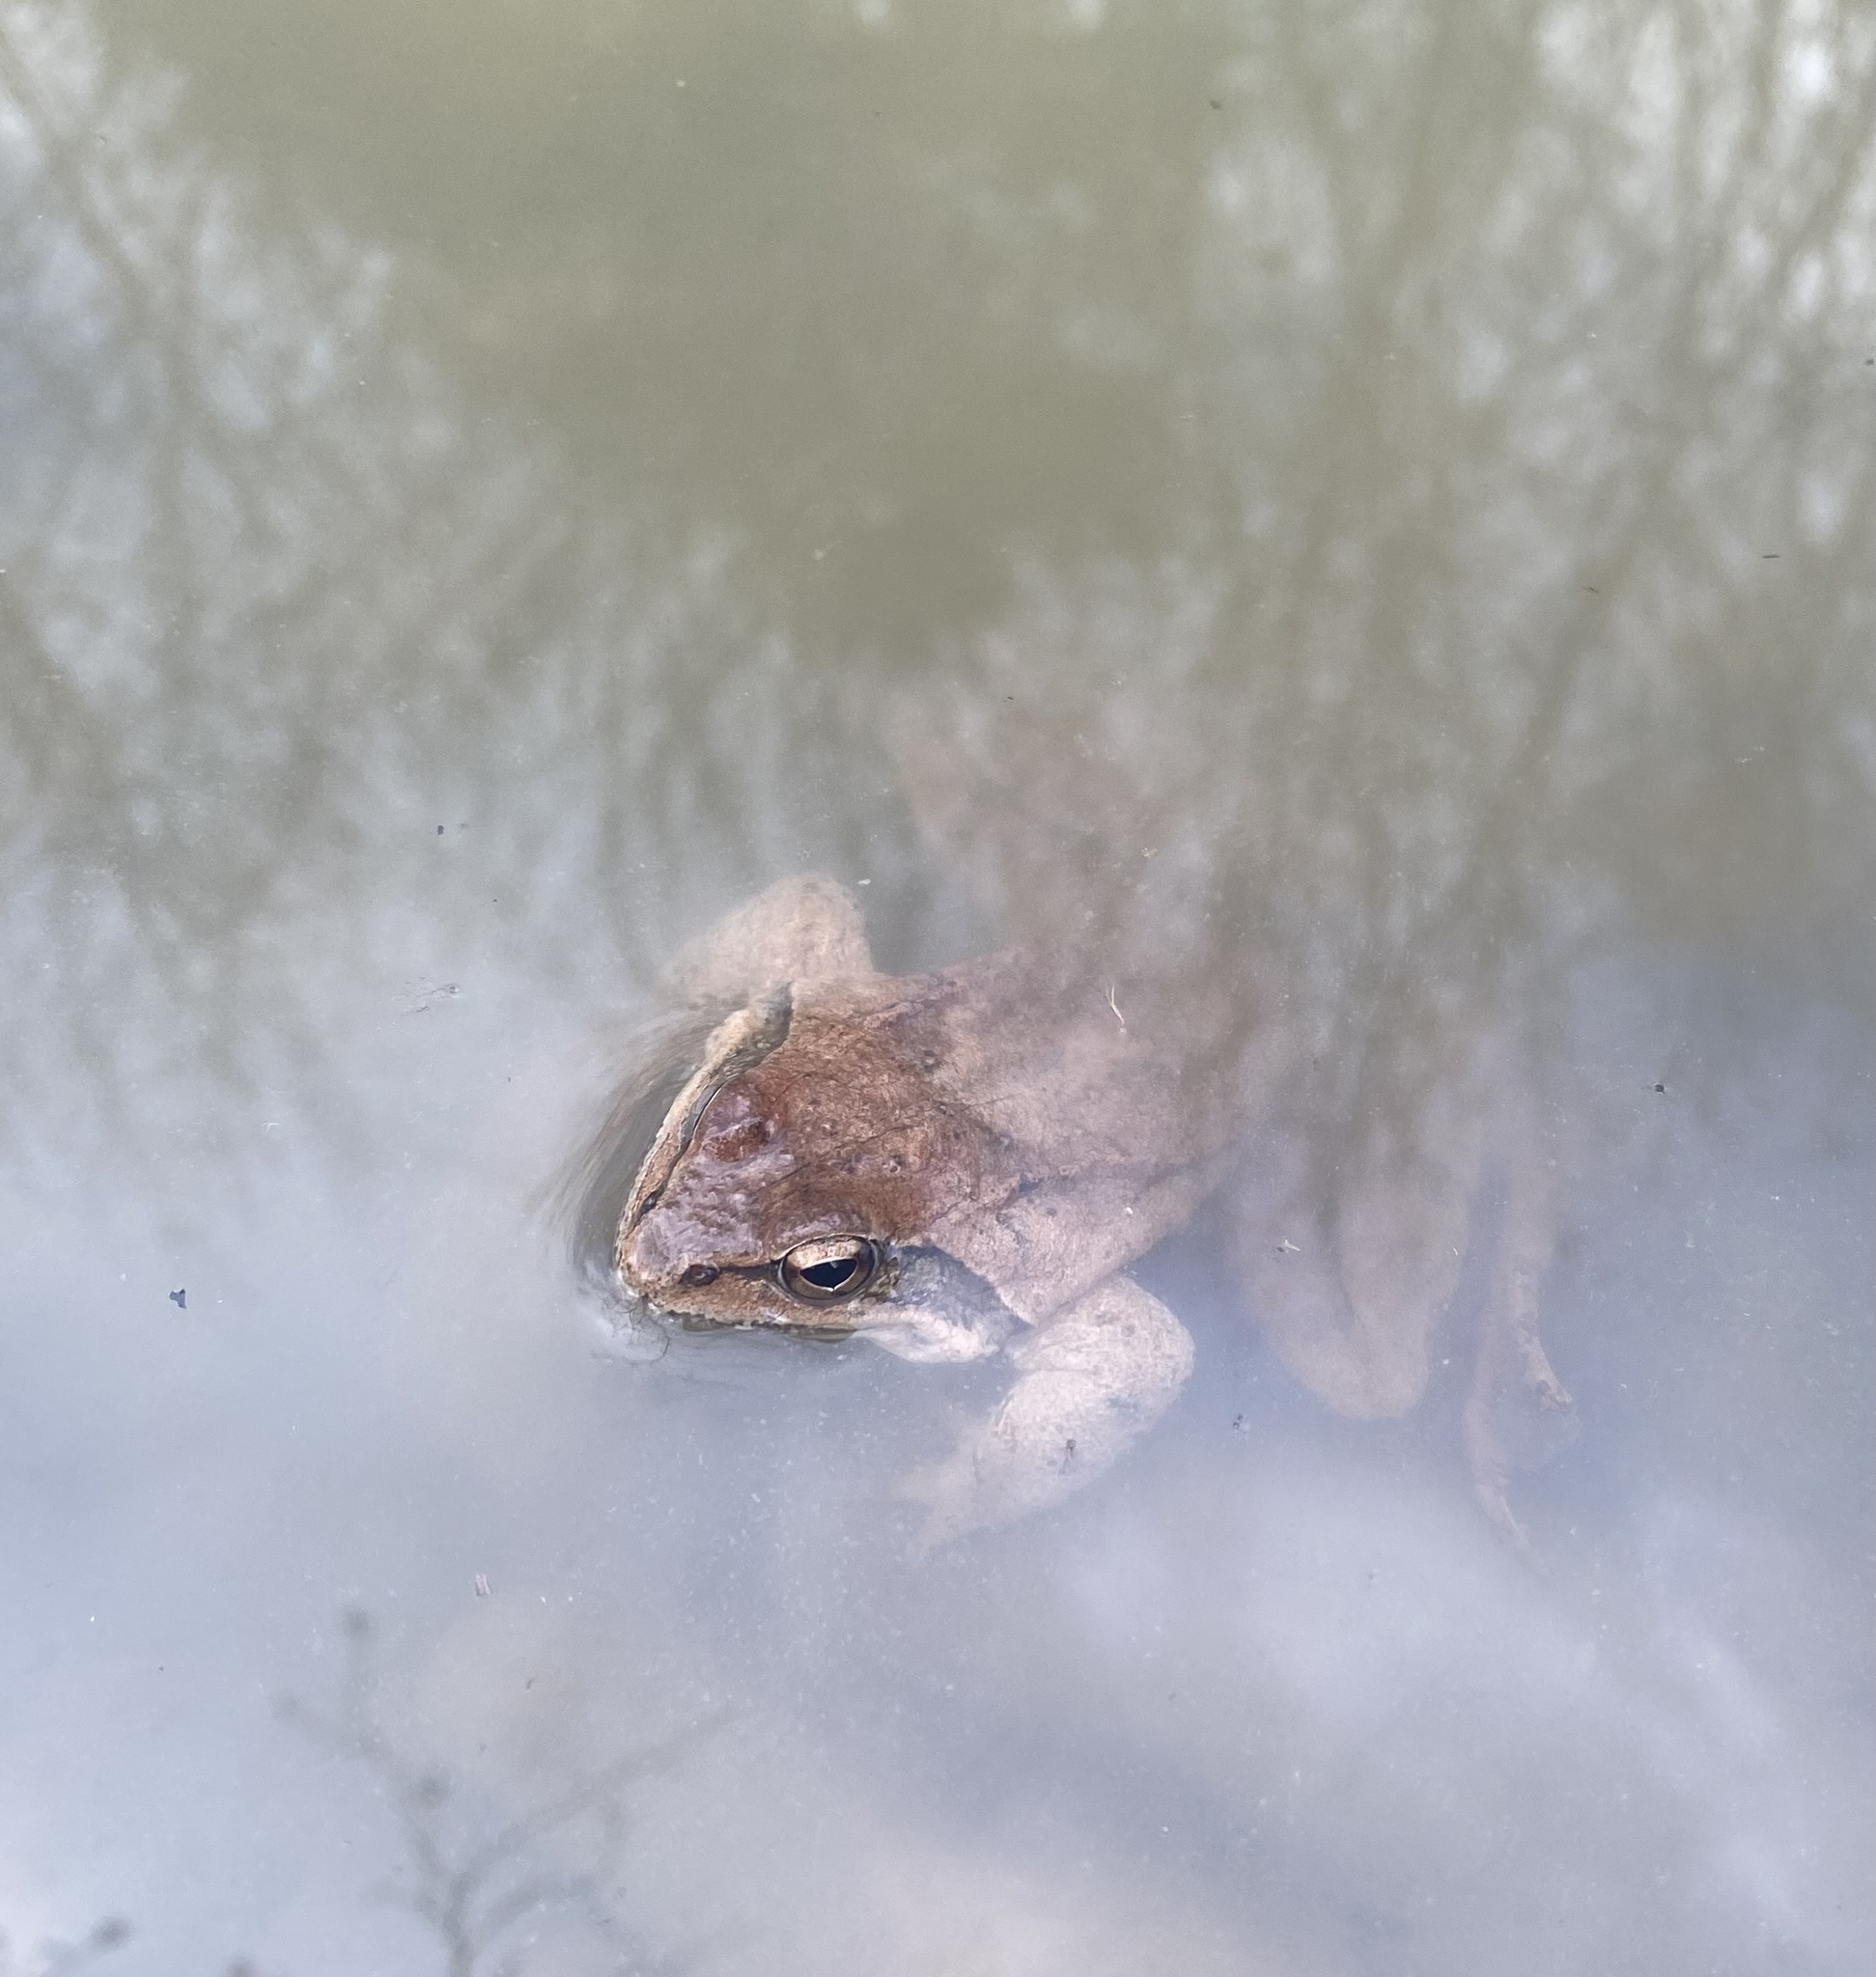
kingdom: Animalia
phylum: Chordata
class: Amphibia
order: Anura
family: Ranidae
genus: Rana
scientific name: Rana macrocnemis
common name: Banded frog
